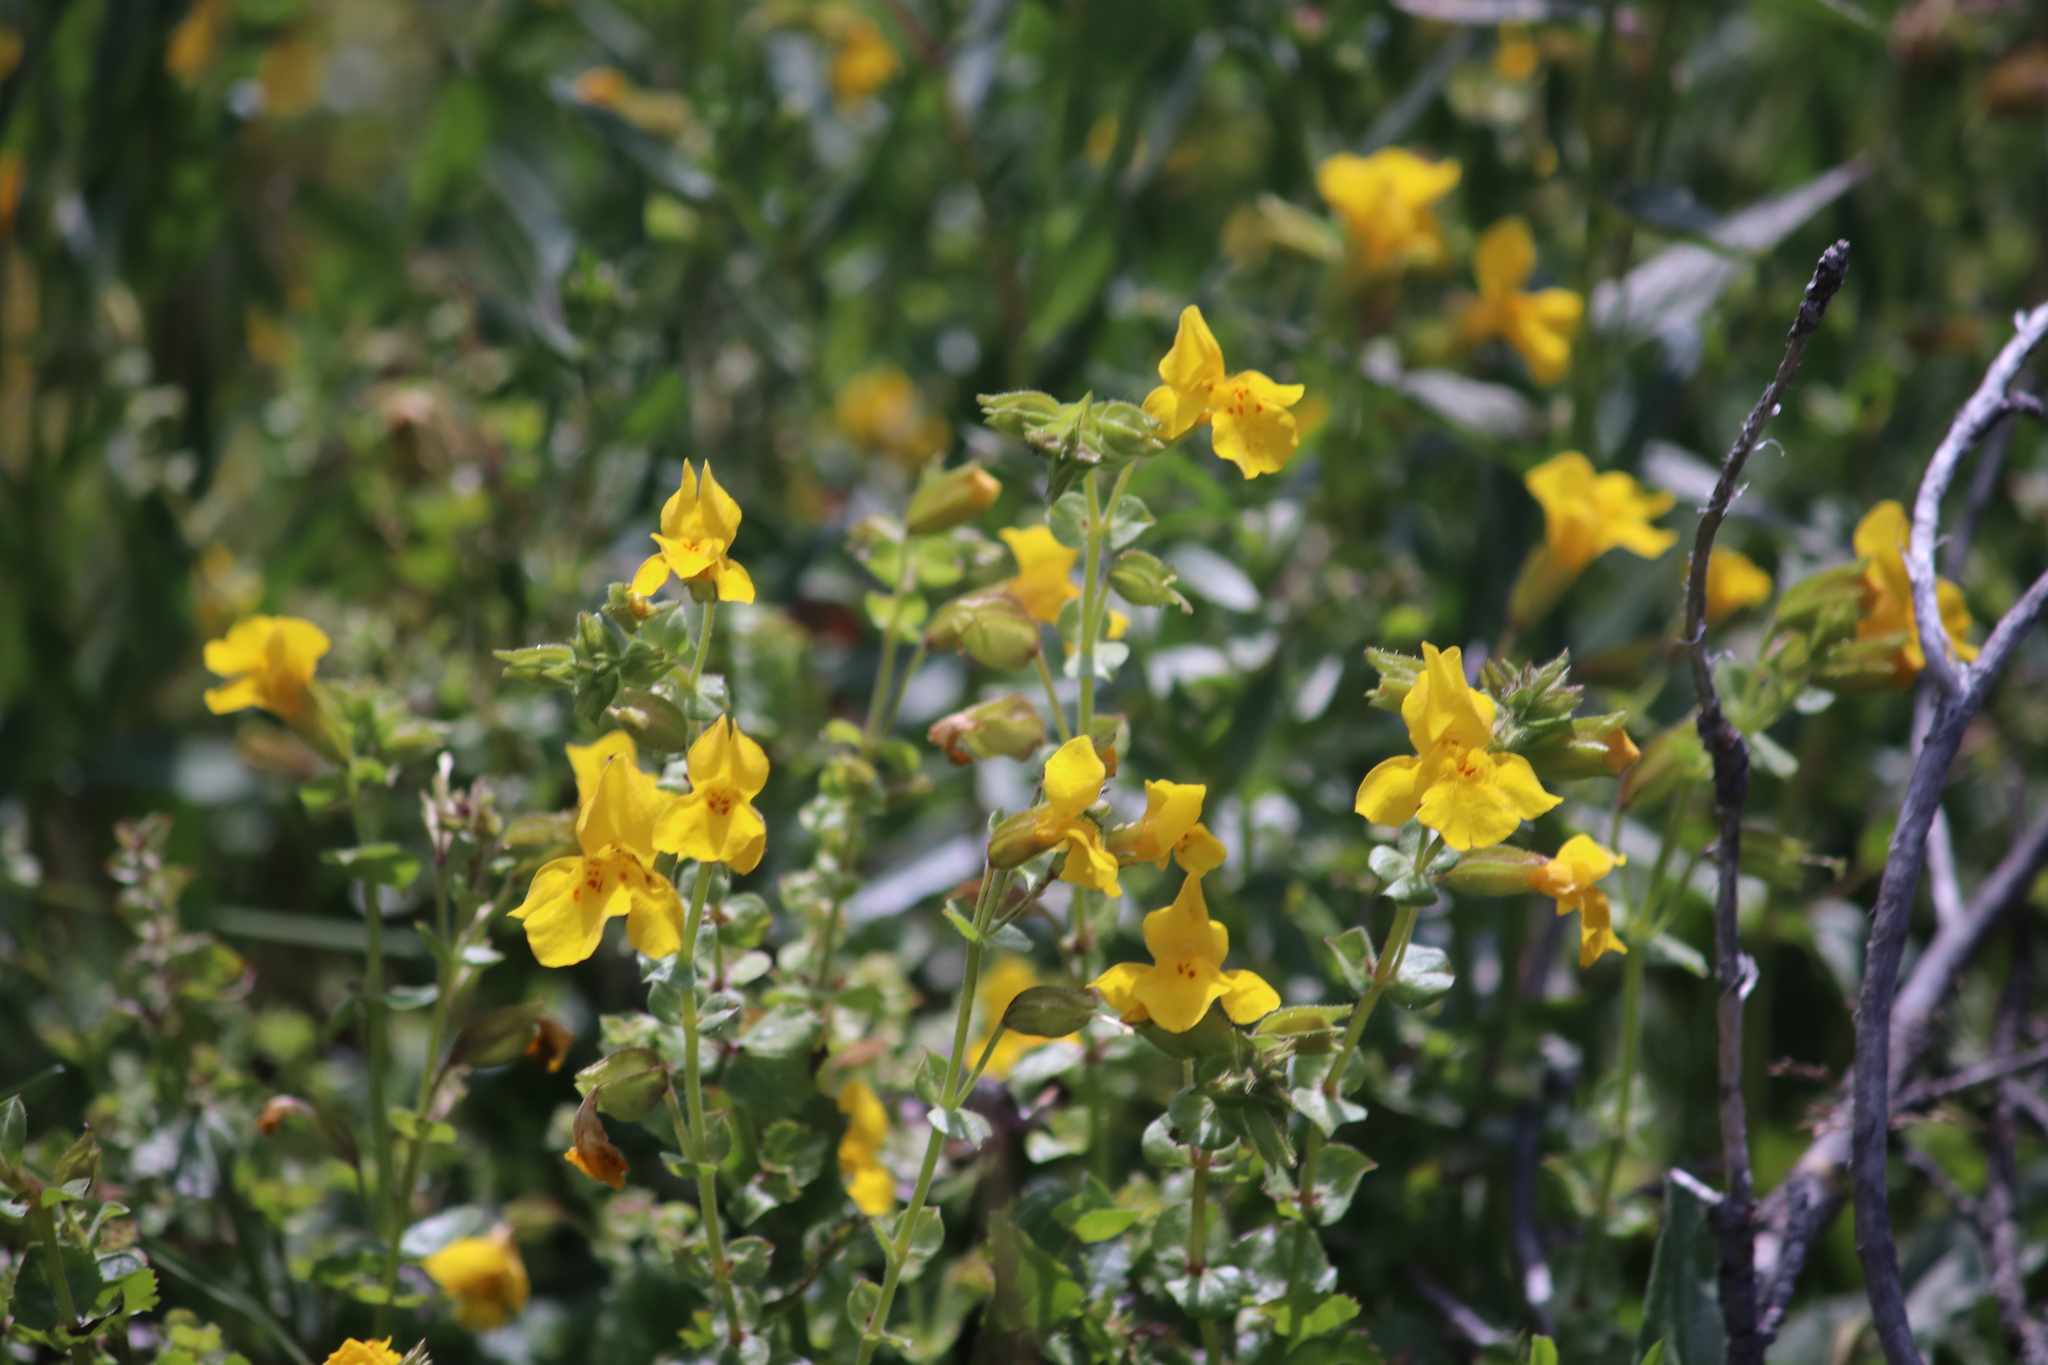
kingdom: Plantae
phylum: Tracheophyta
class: Magnoliopsida
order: Lamiales
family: Phrymaceae
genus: Erythranthe
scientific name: Erythranthe guttata
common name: Monkeyflower
